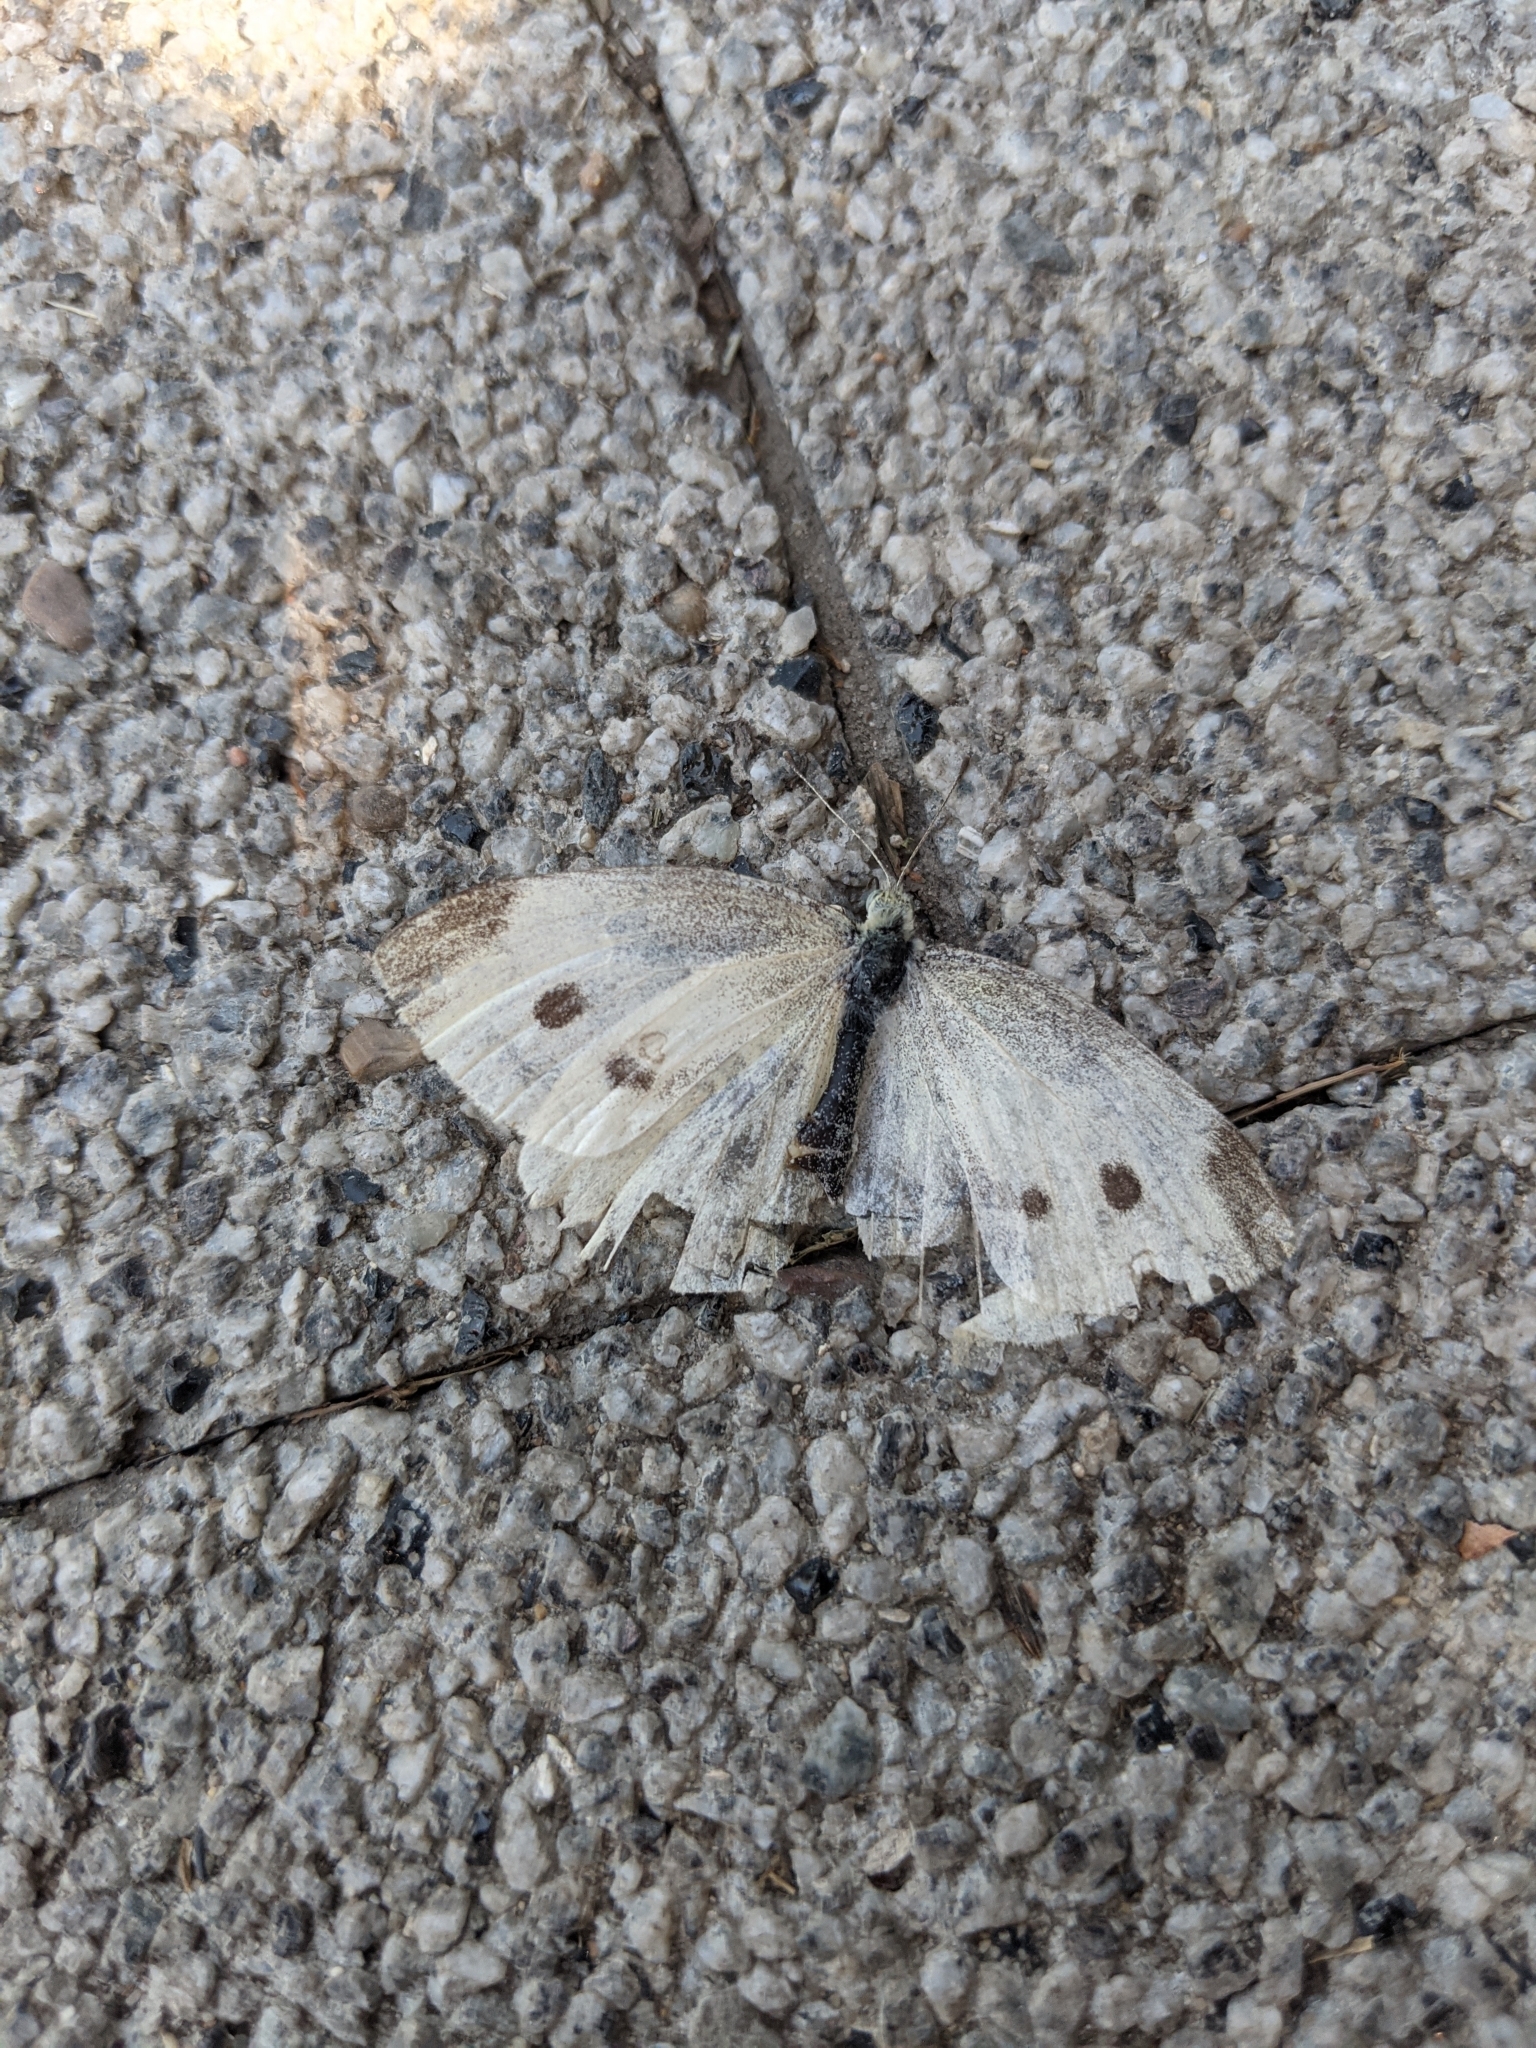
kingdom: Animalia
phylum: Arthropoda
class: Insecta
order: Lepidoptera
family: Pieridae
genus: Pieris
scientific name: Pieris rapae
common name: Small white
